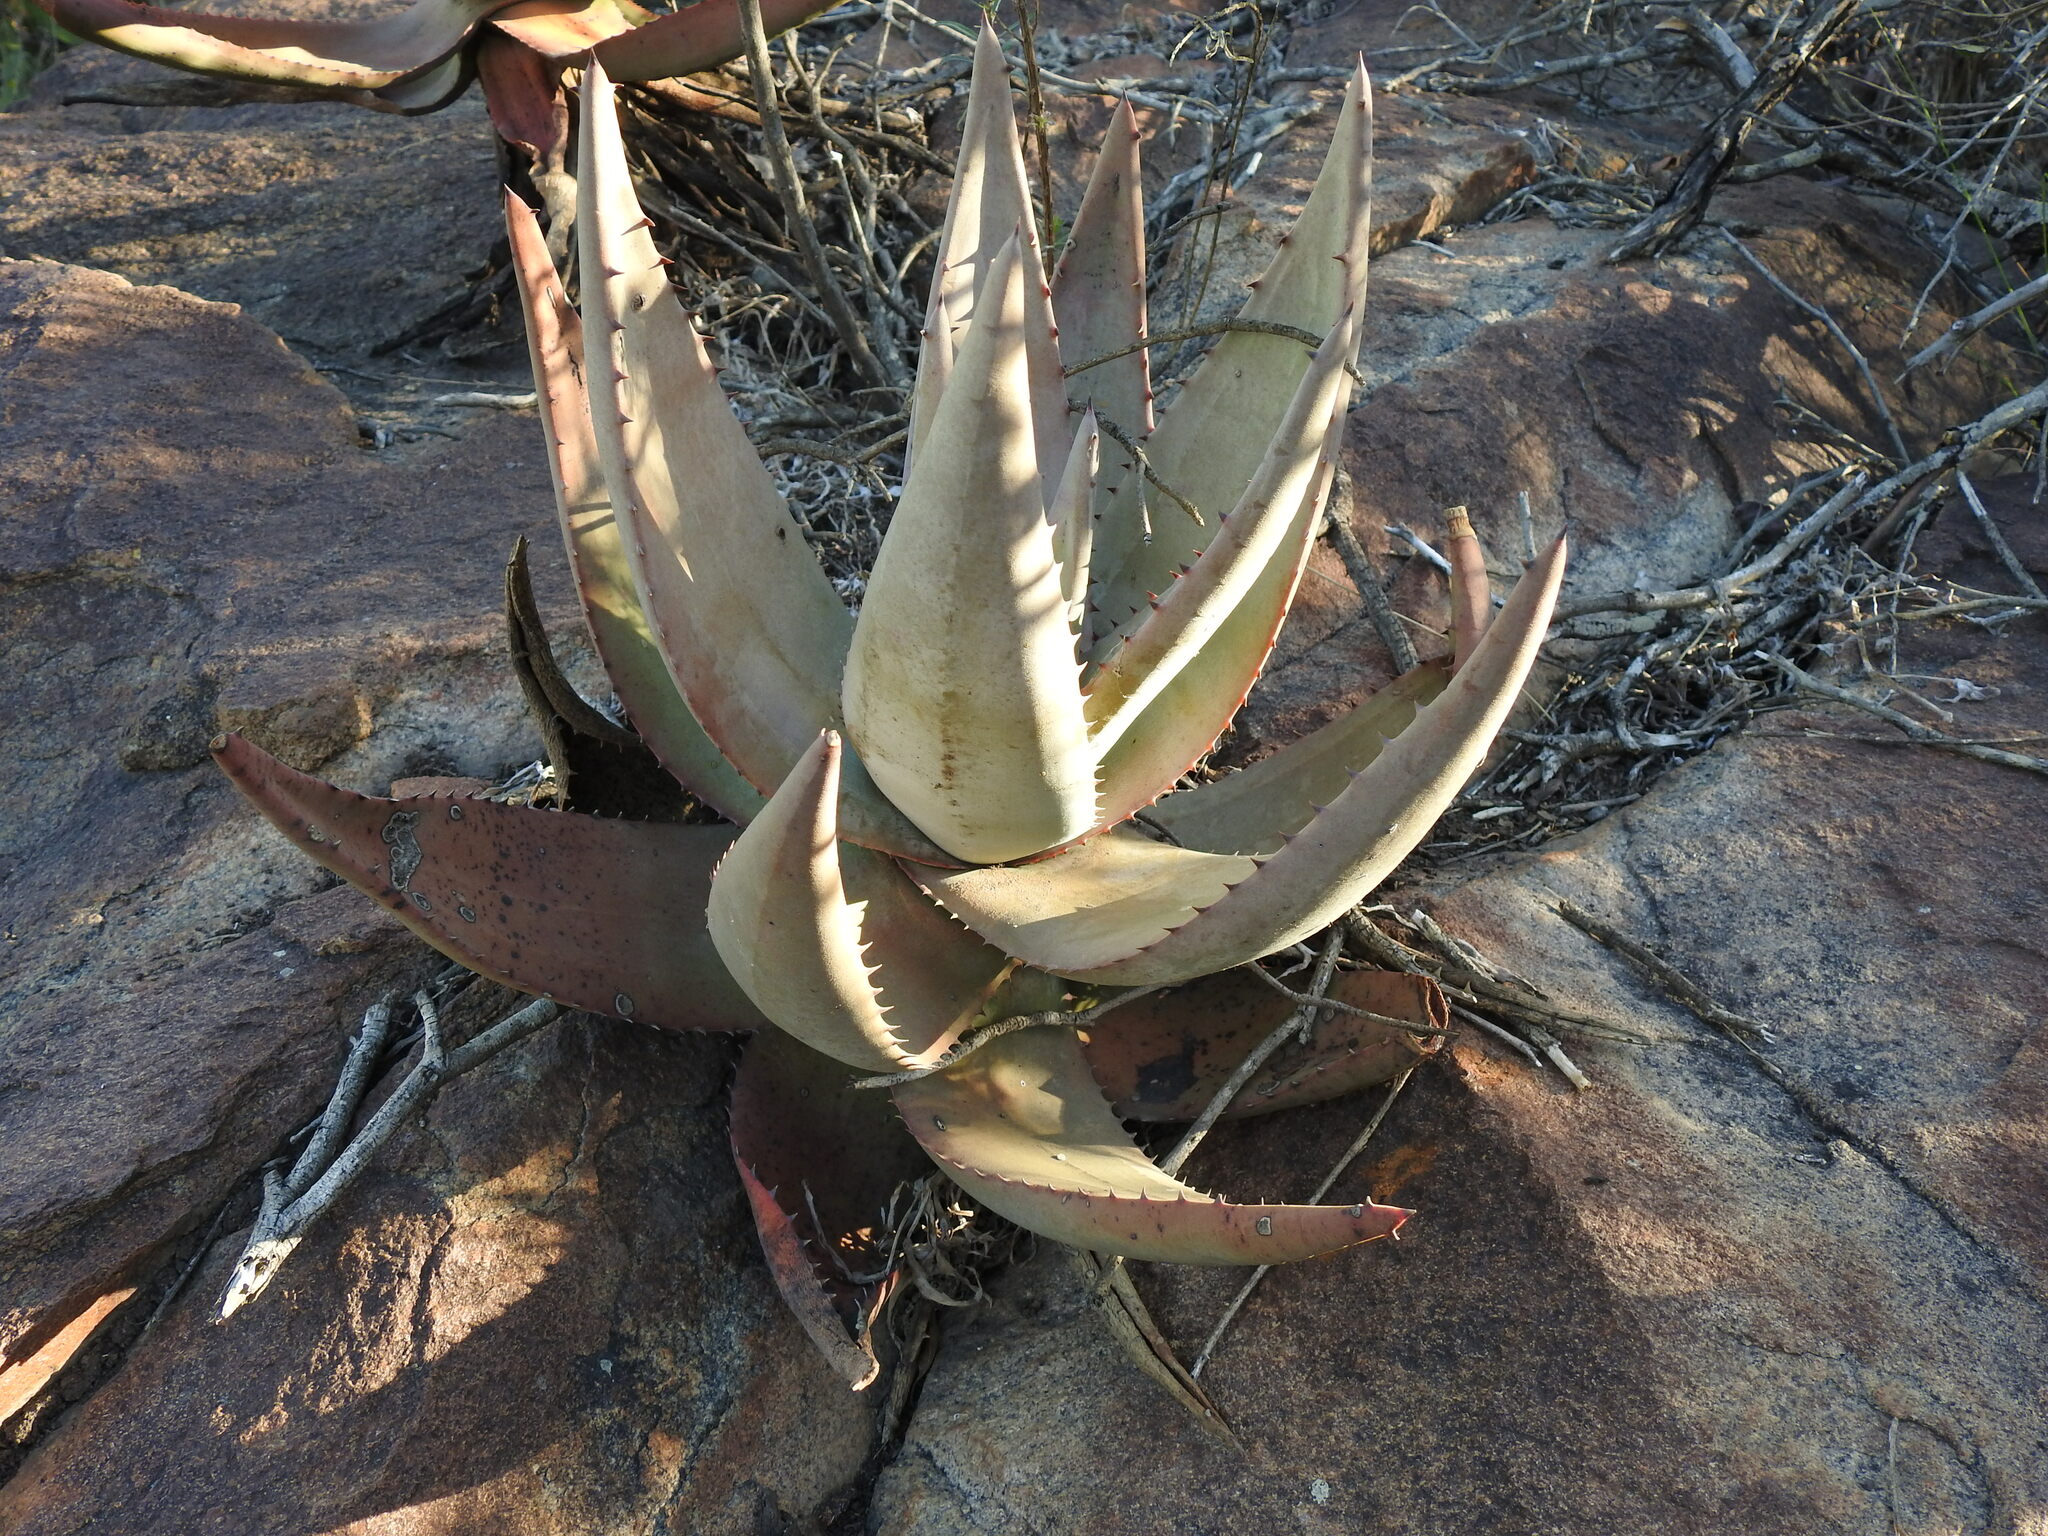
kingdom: Plantae
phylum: Tracheophyta
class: Liliopsida
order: Asparagales
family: Asphodelaceae
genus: Aloe
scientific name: Aloe petricola
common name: Rock aloe
